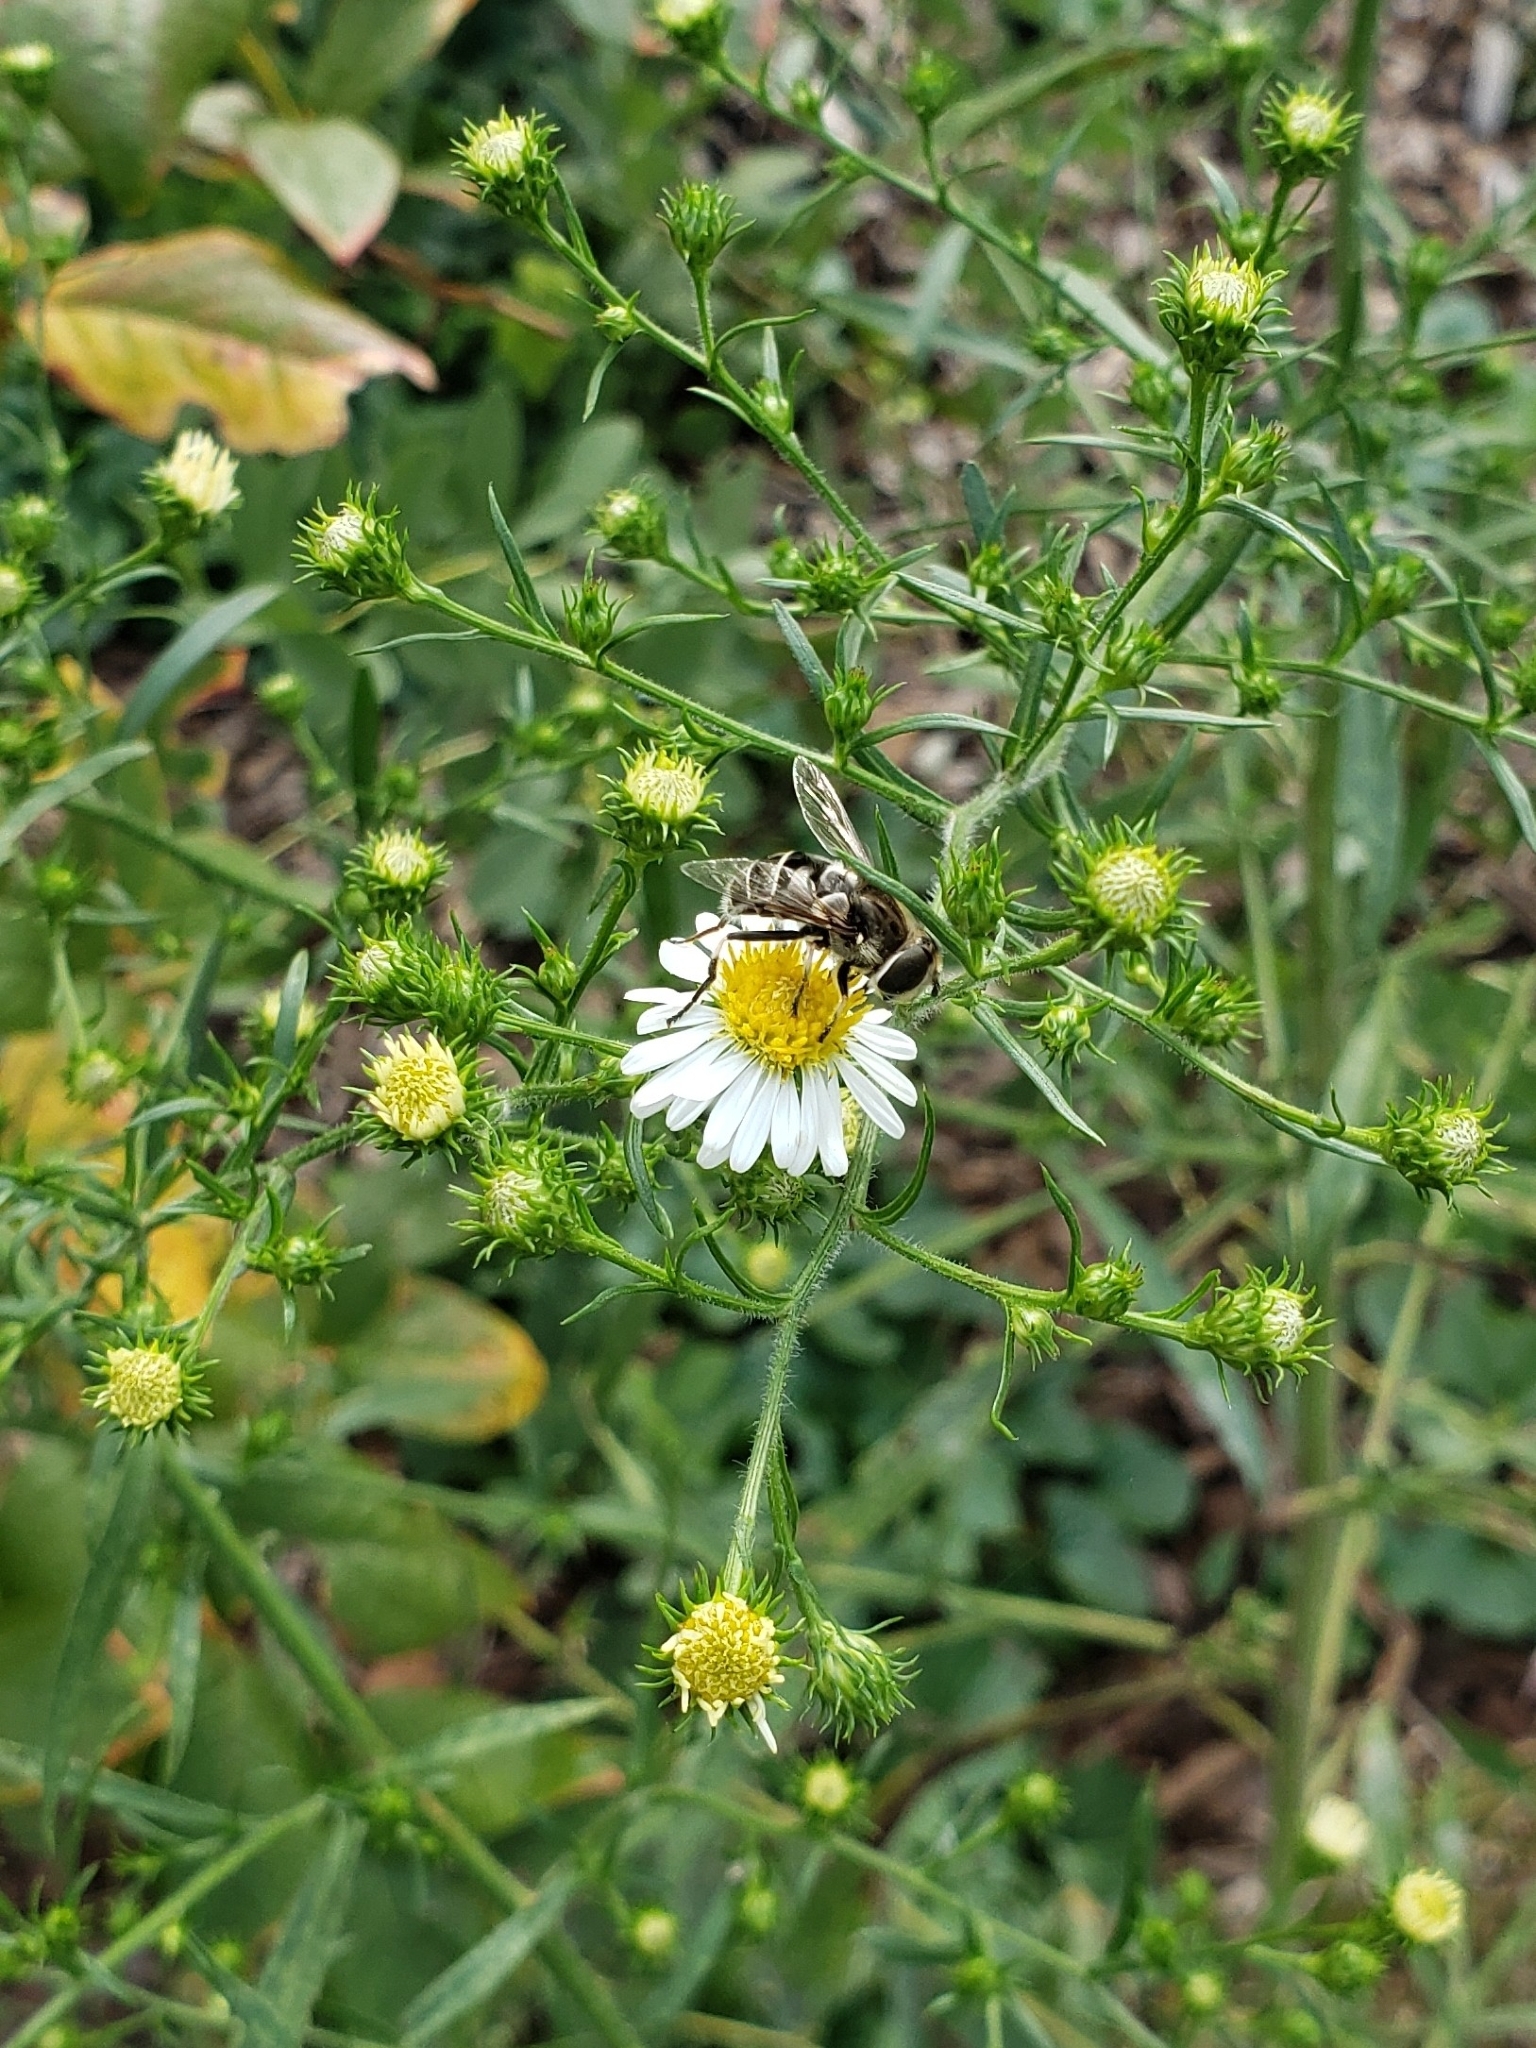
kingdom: Animalia
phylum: Arthropoda
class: Insecta
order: Diptera
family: Syrphidae
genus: Eristalis
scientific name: Eristalis dimidiata
